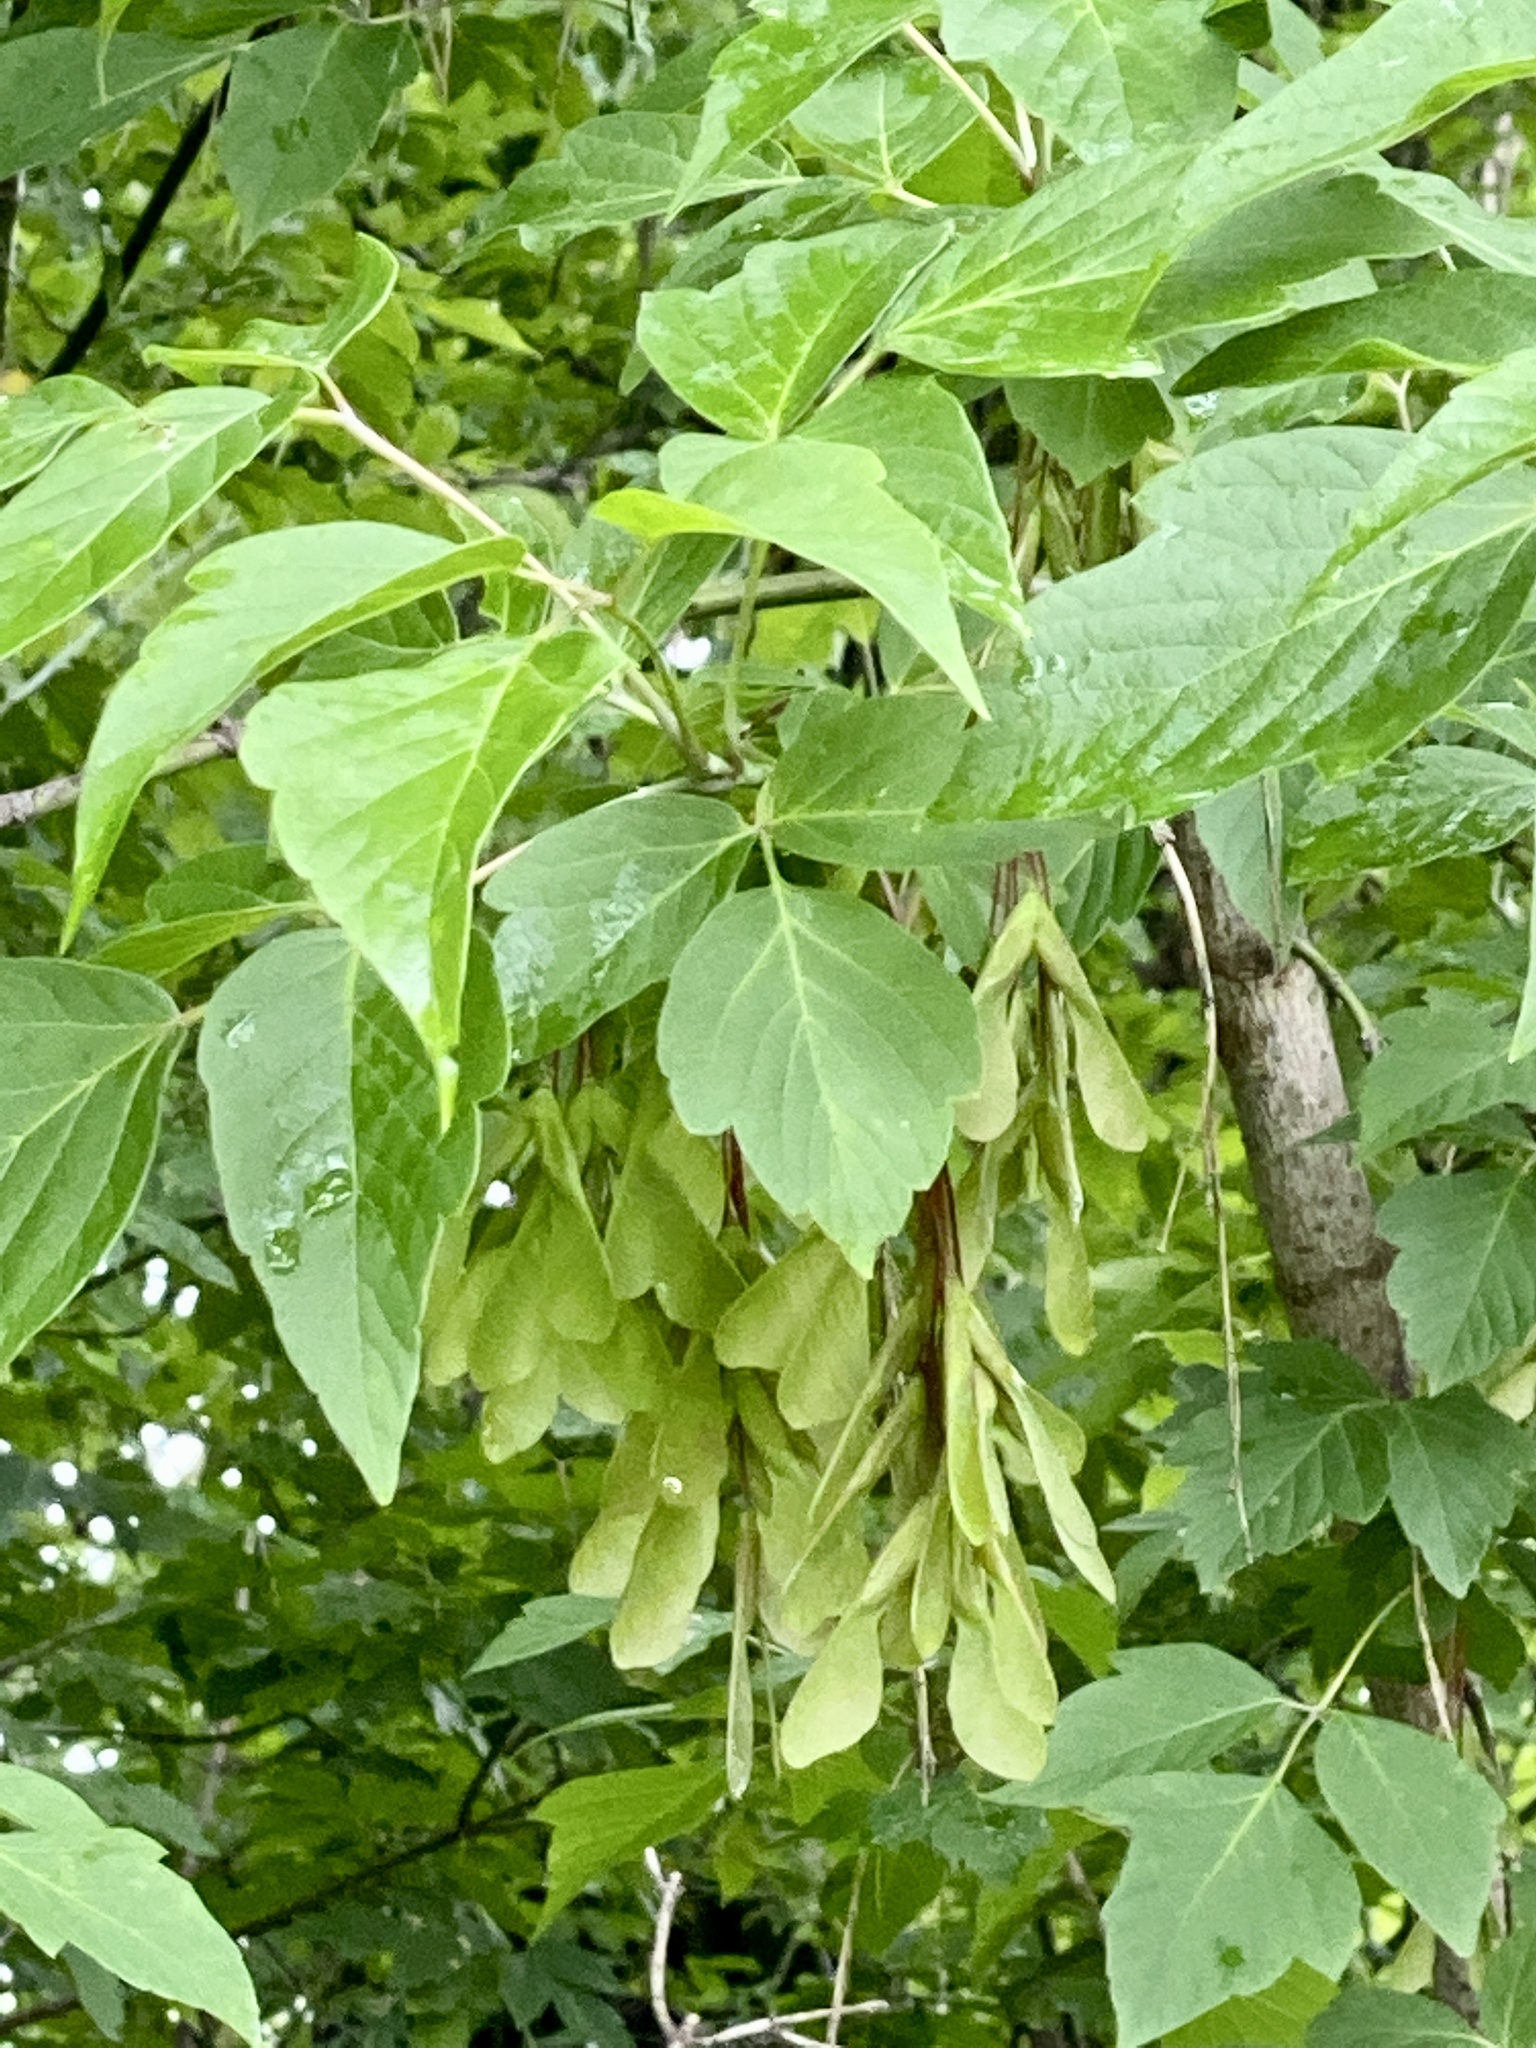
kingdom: Plantae
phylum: Tracheophyta
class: Magnoliopsida
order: Sapindales
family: Sapindaceae
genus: Acer
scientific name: Acer negundo
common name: Ashleaf maple
